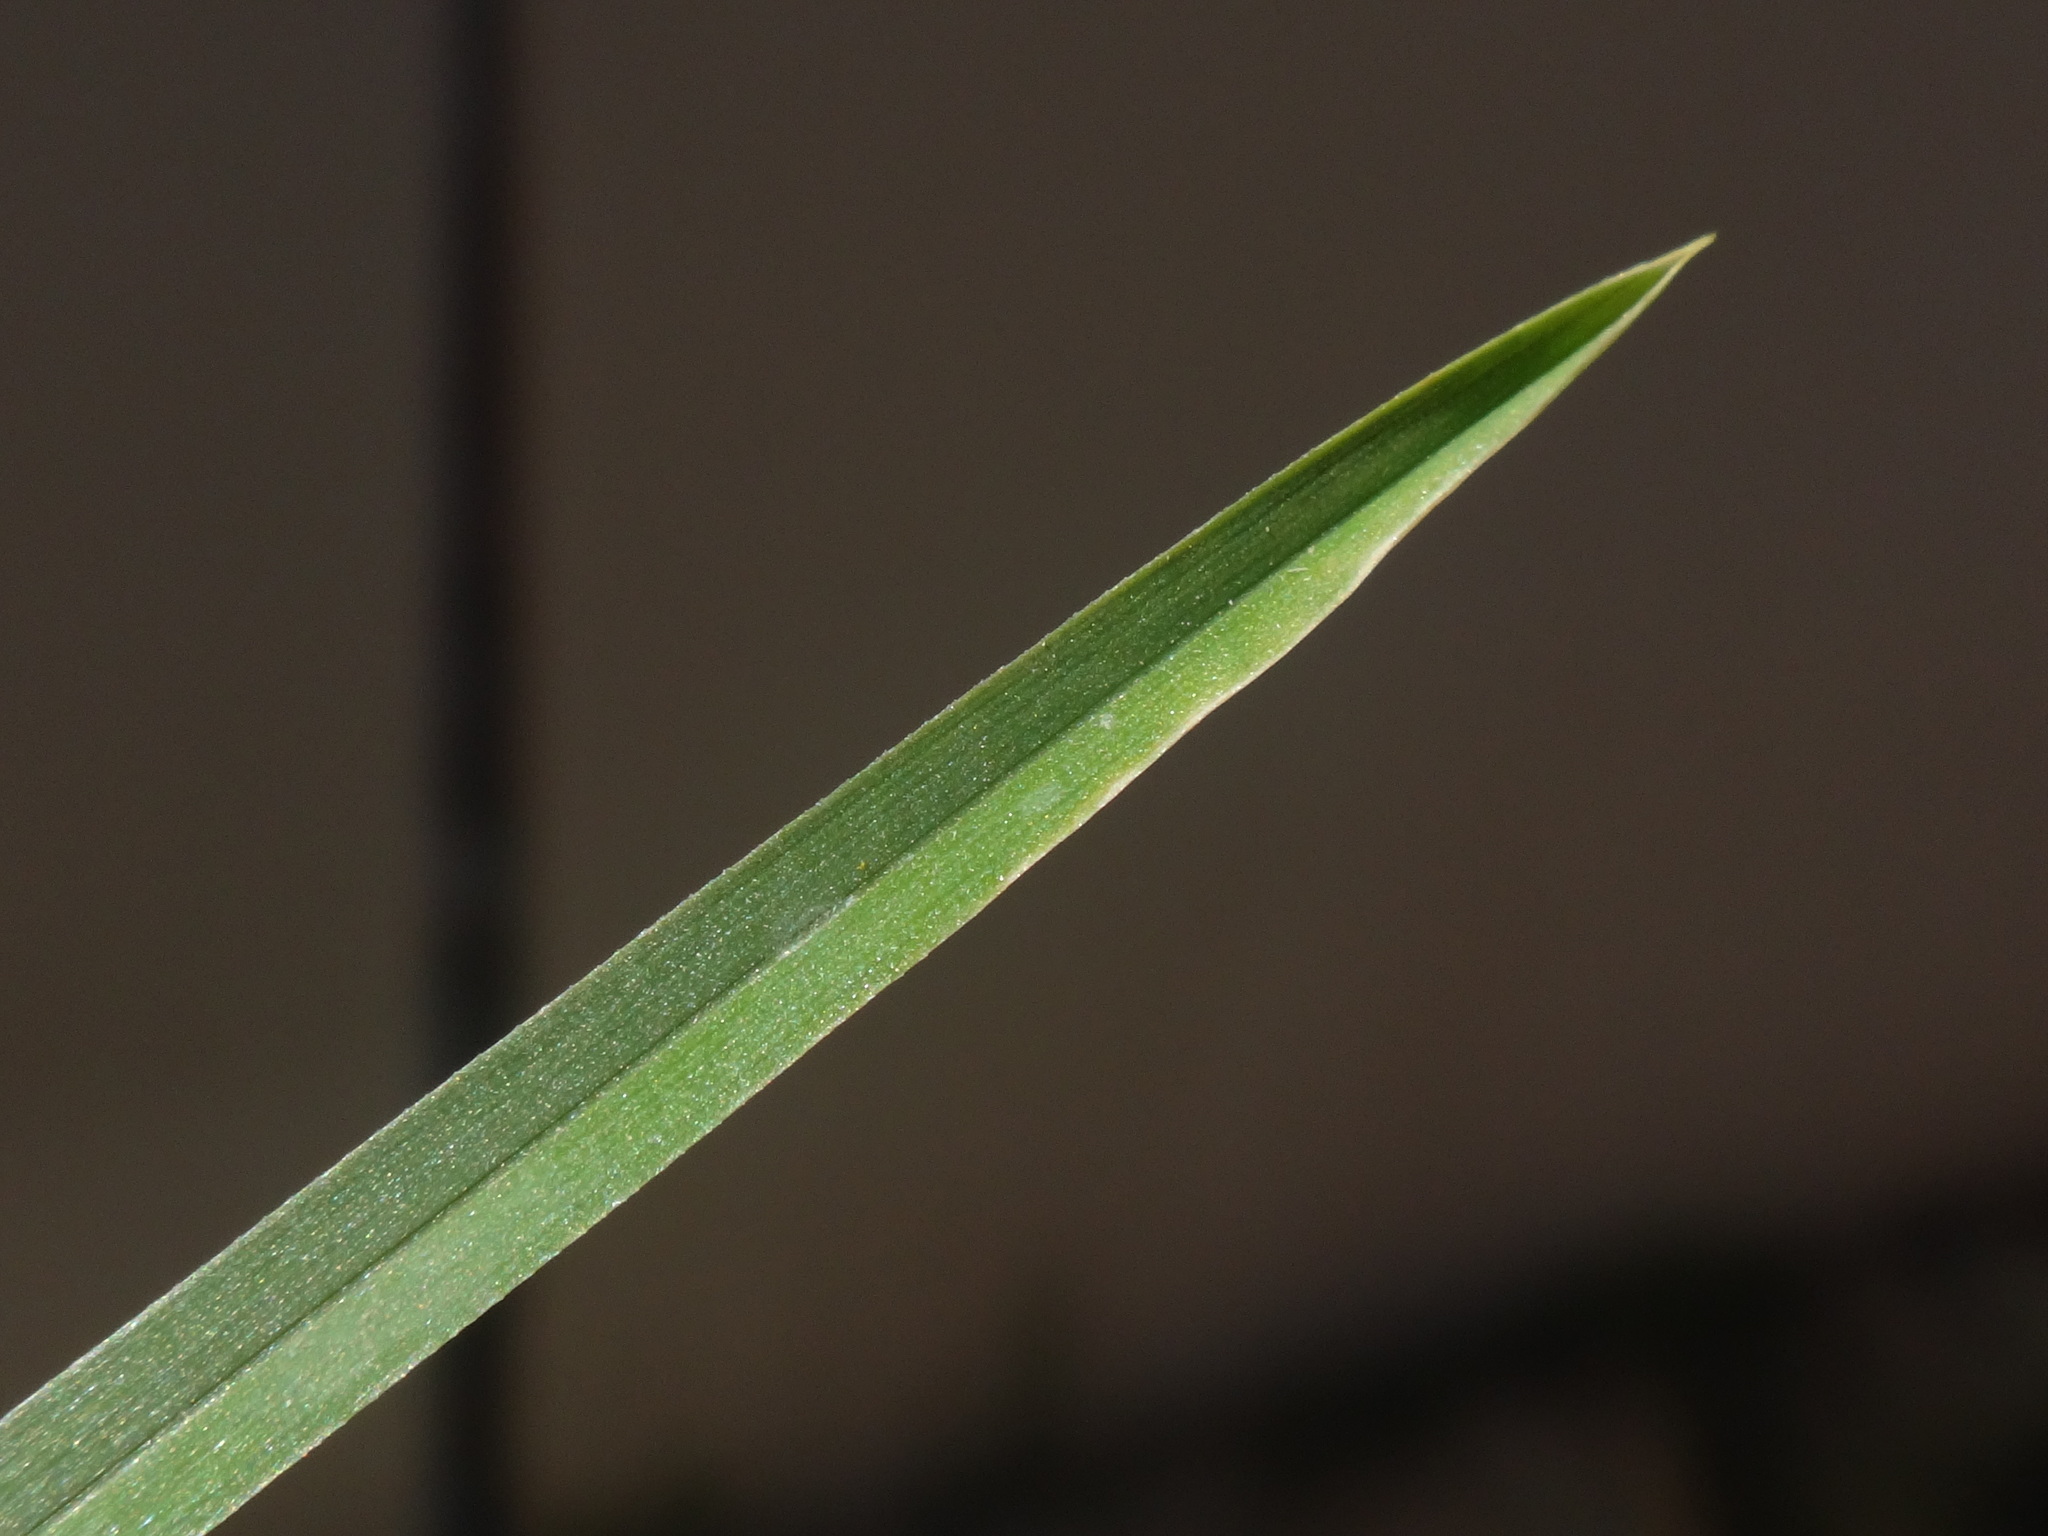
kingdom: Plantae
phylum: Tracheophyta
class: Liliopsida
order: Poales
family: Poaceae
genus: Poa
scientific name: Poa annua
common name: Annual bluegrass
